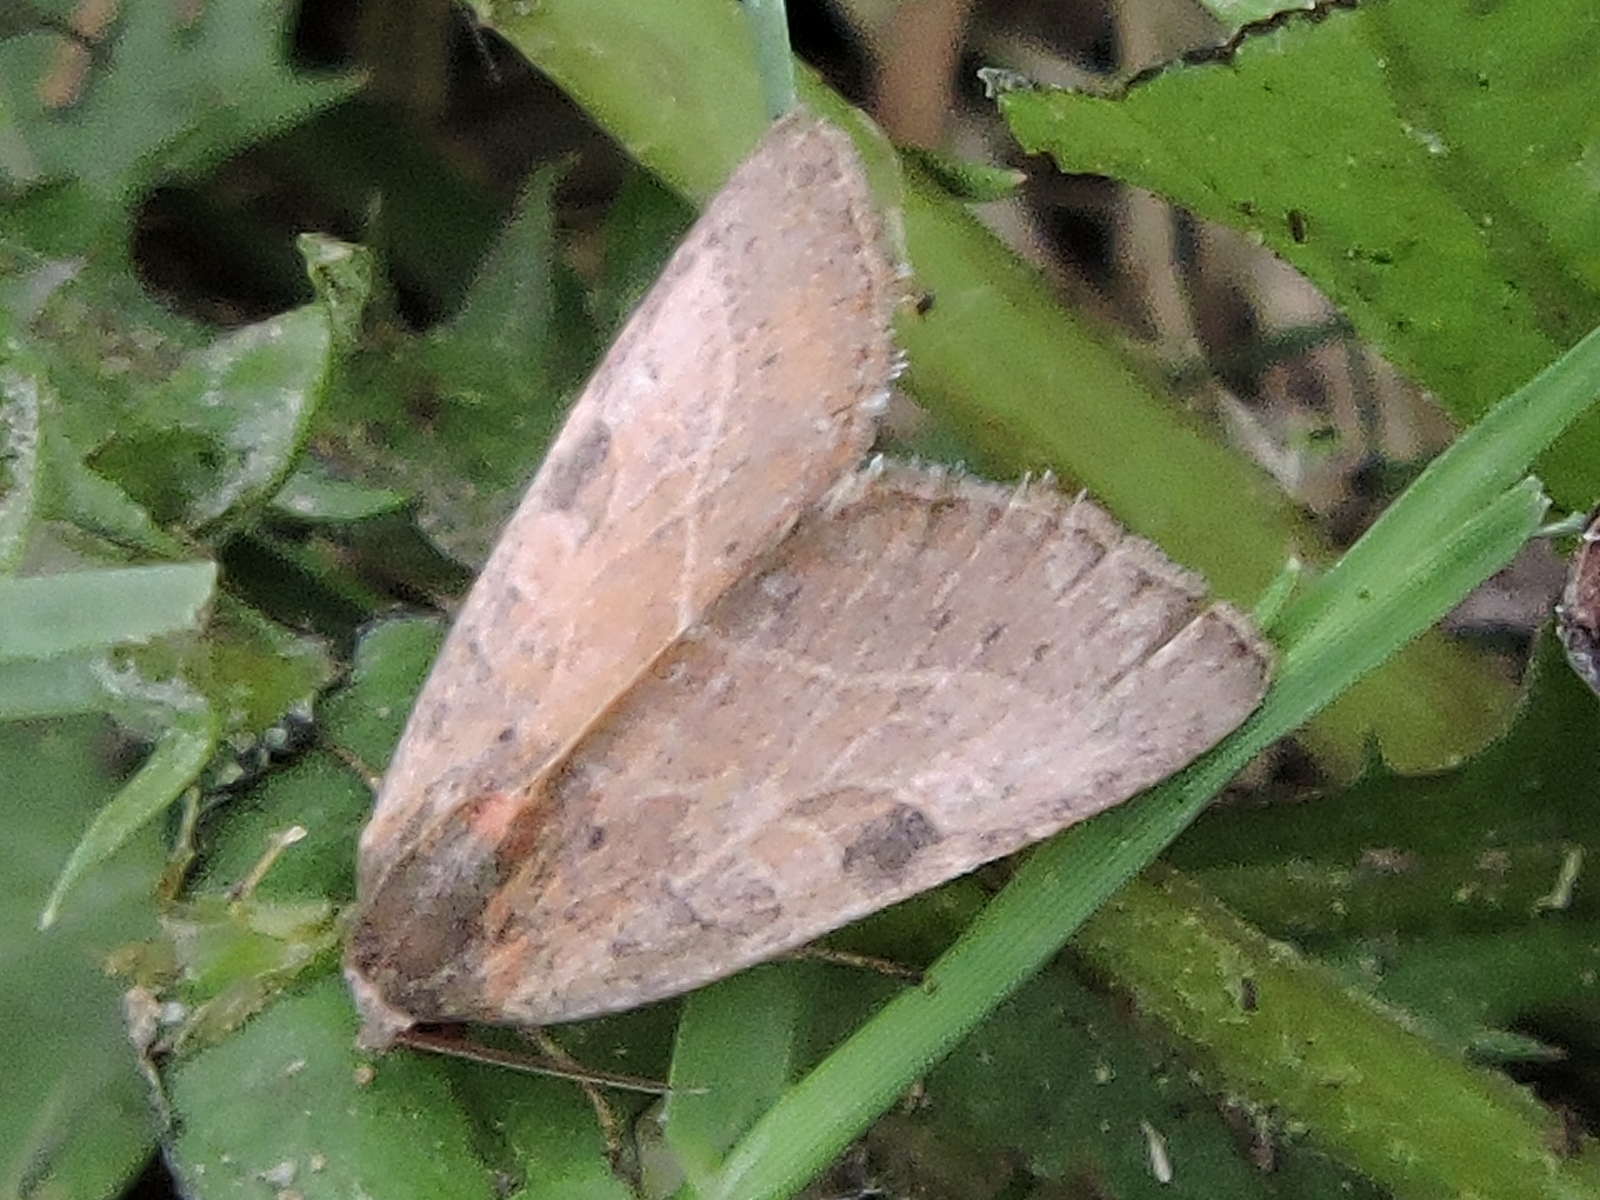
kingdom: Animalia
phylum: Arthropoda
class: Insecta
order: Lepidoptera
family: Noctuidae
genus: Galgula
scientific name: Galgula partita
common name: Wedgeling
